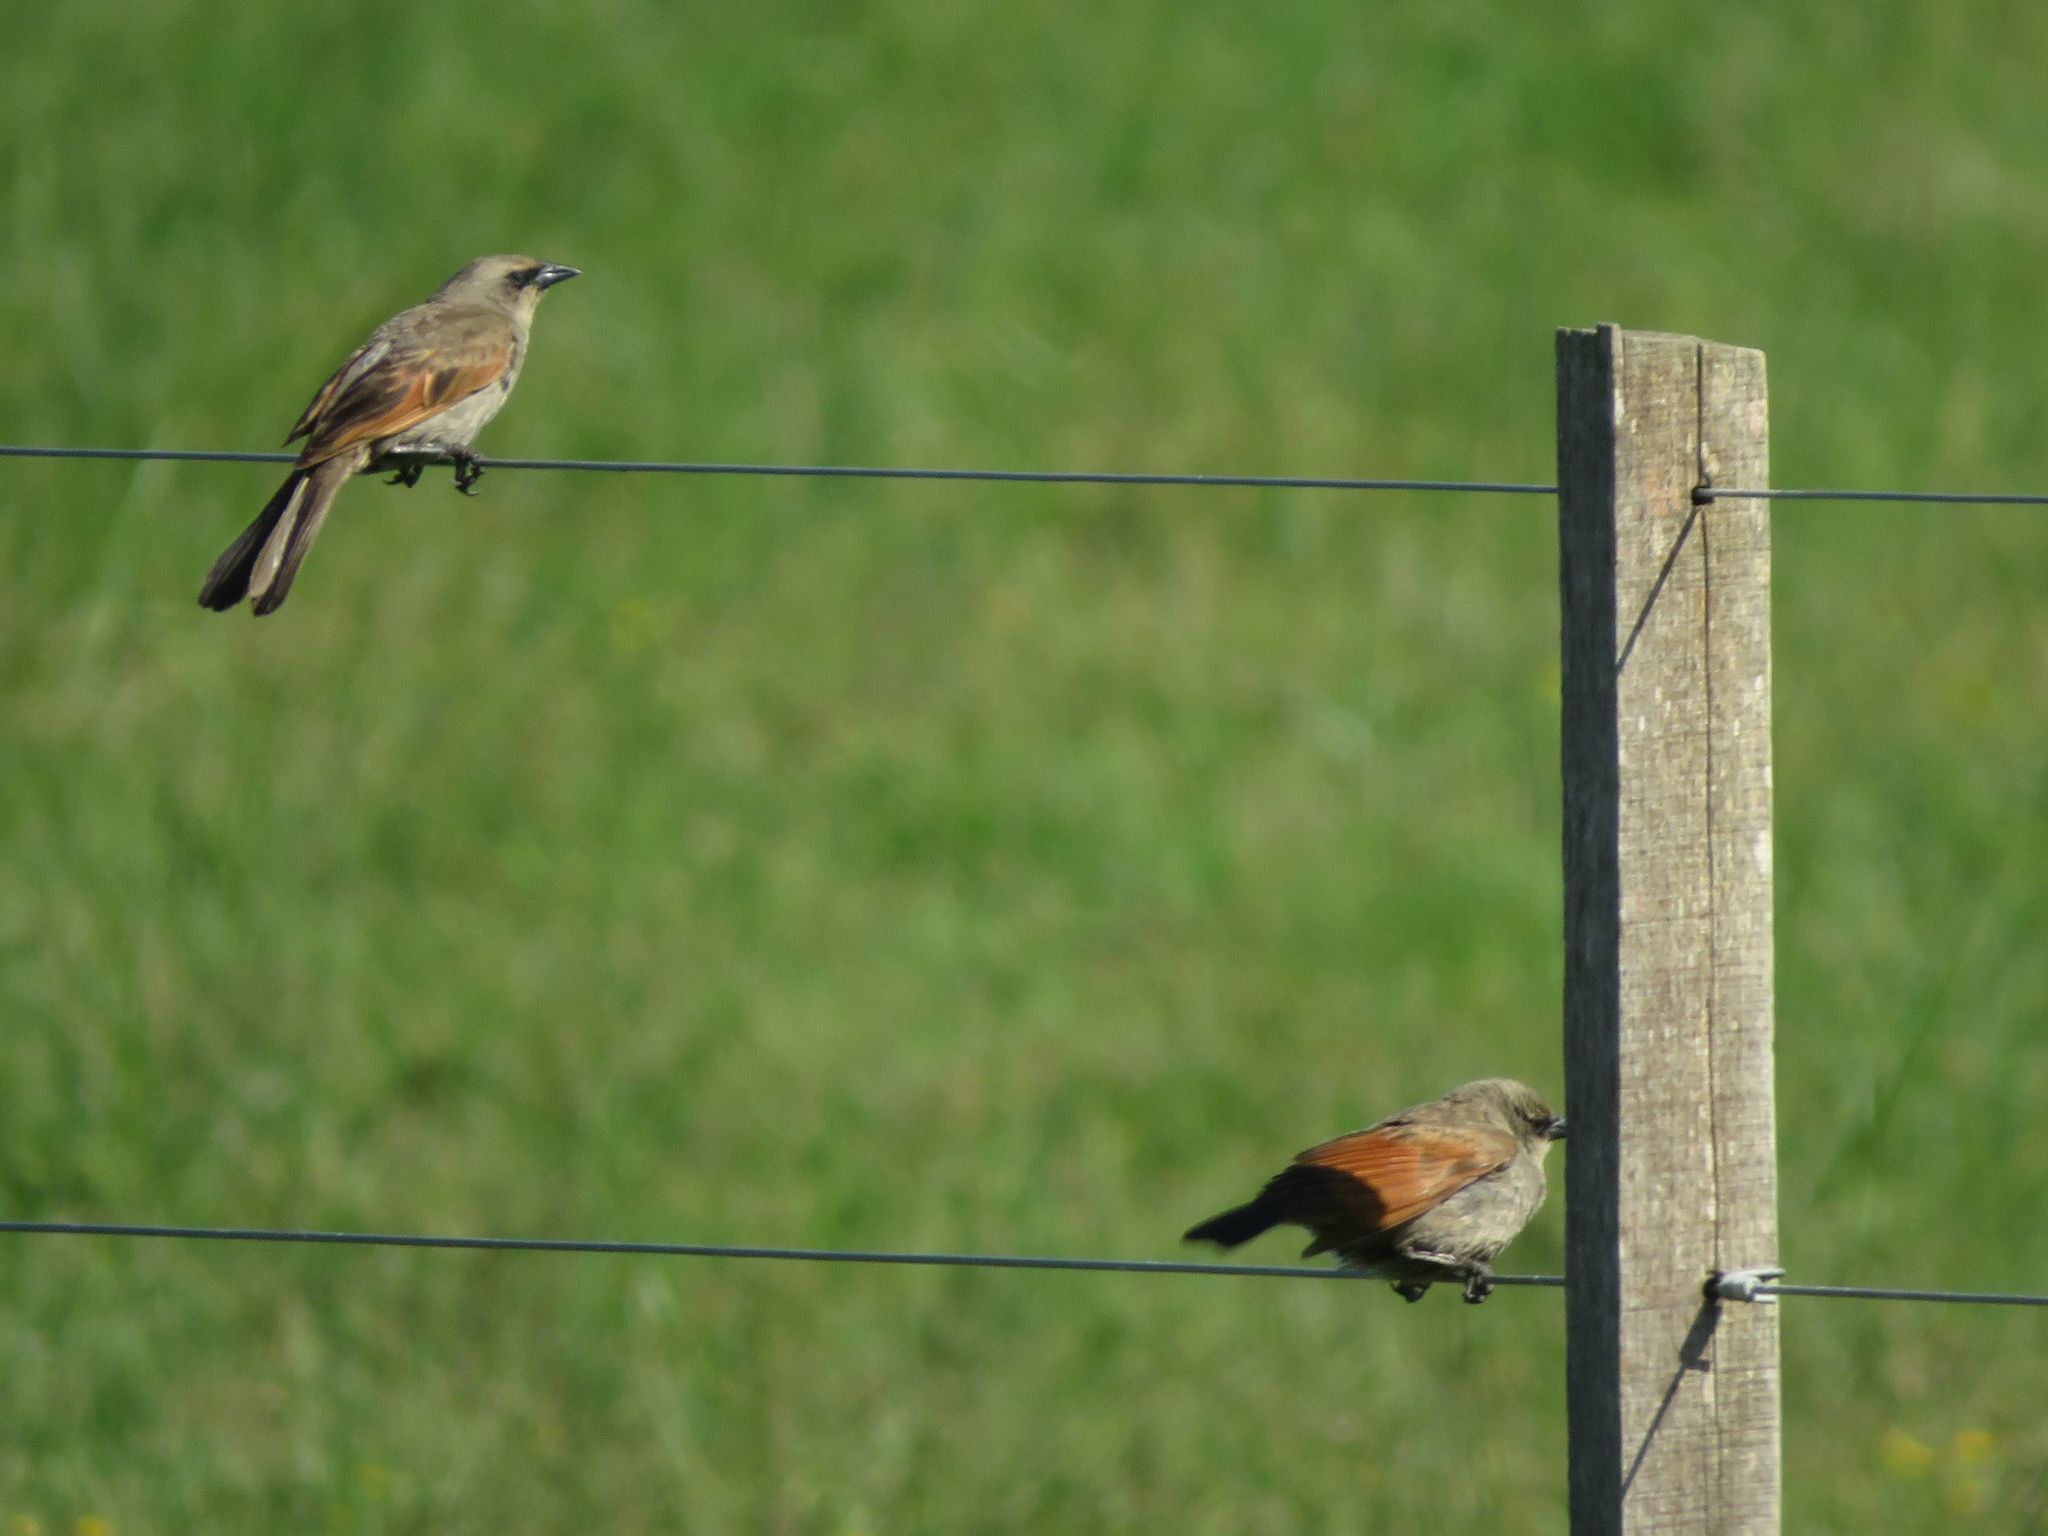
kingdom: Animalia
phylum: Chordata
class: Aves
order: Passeriformes
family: Icteridae
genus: Agelaioides
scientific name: Agelaioides badius
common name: Baywing
